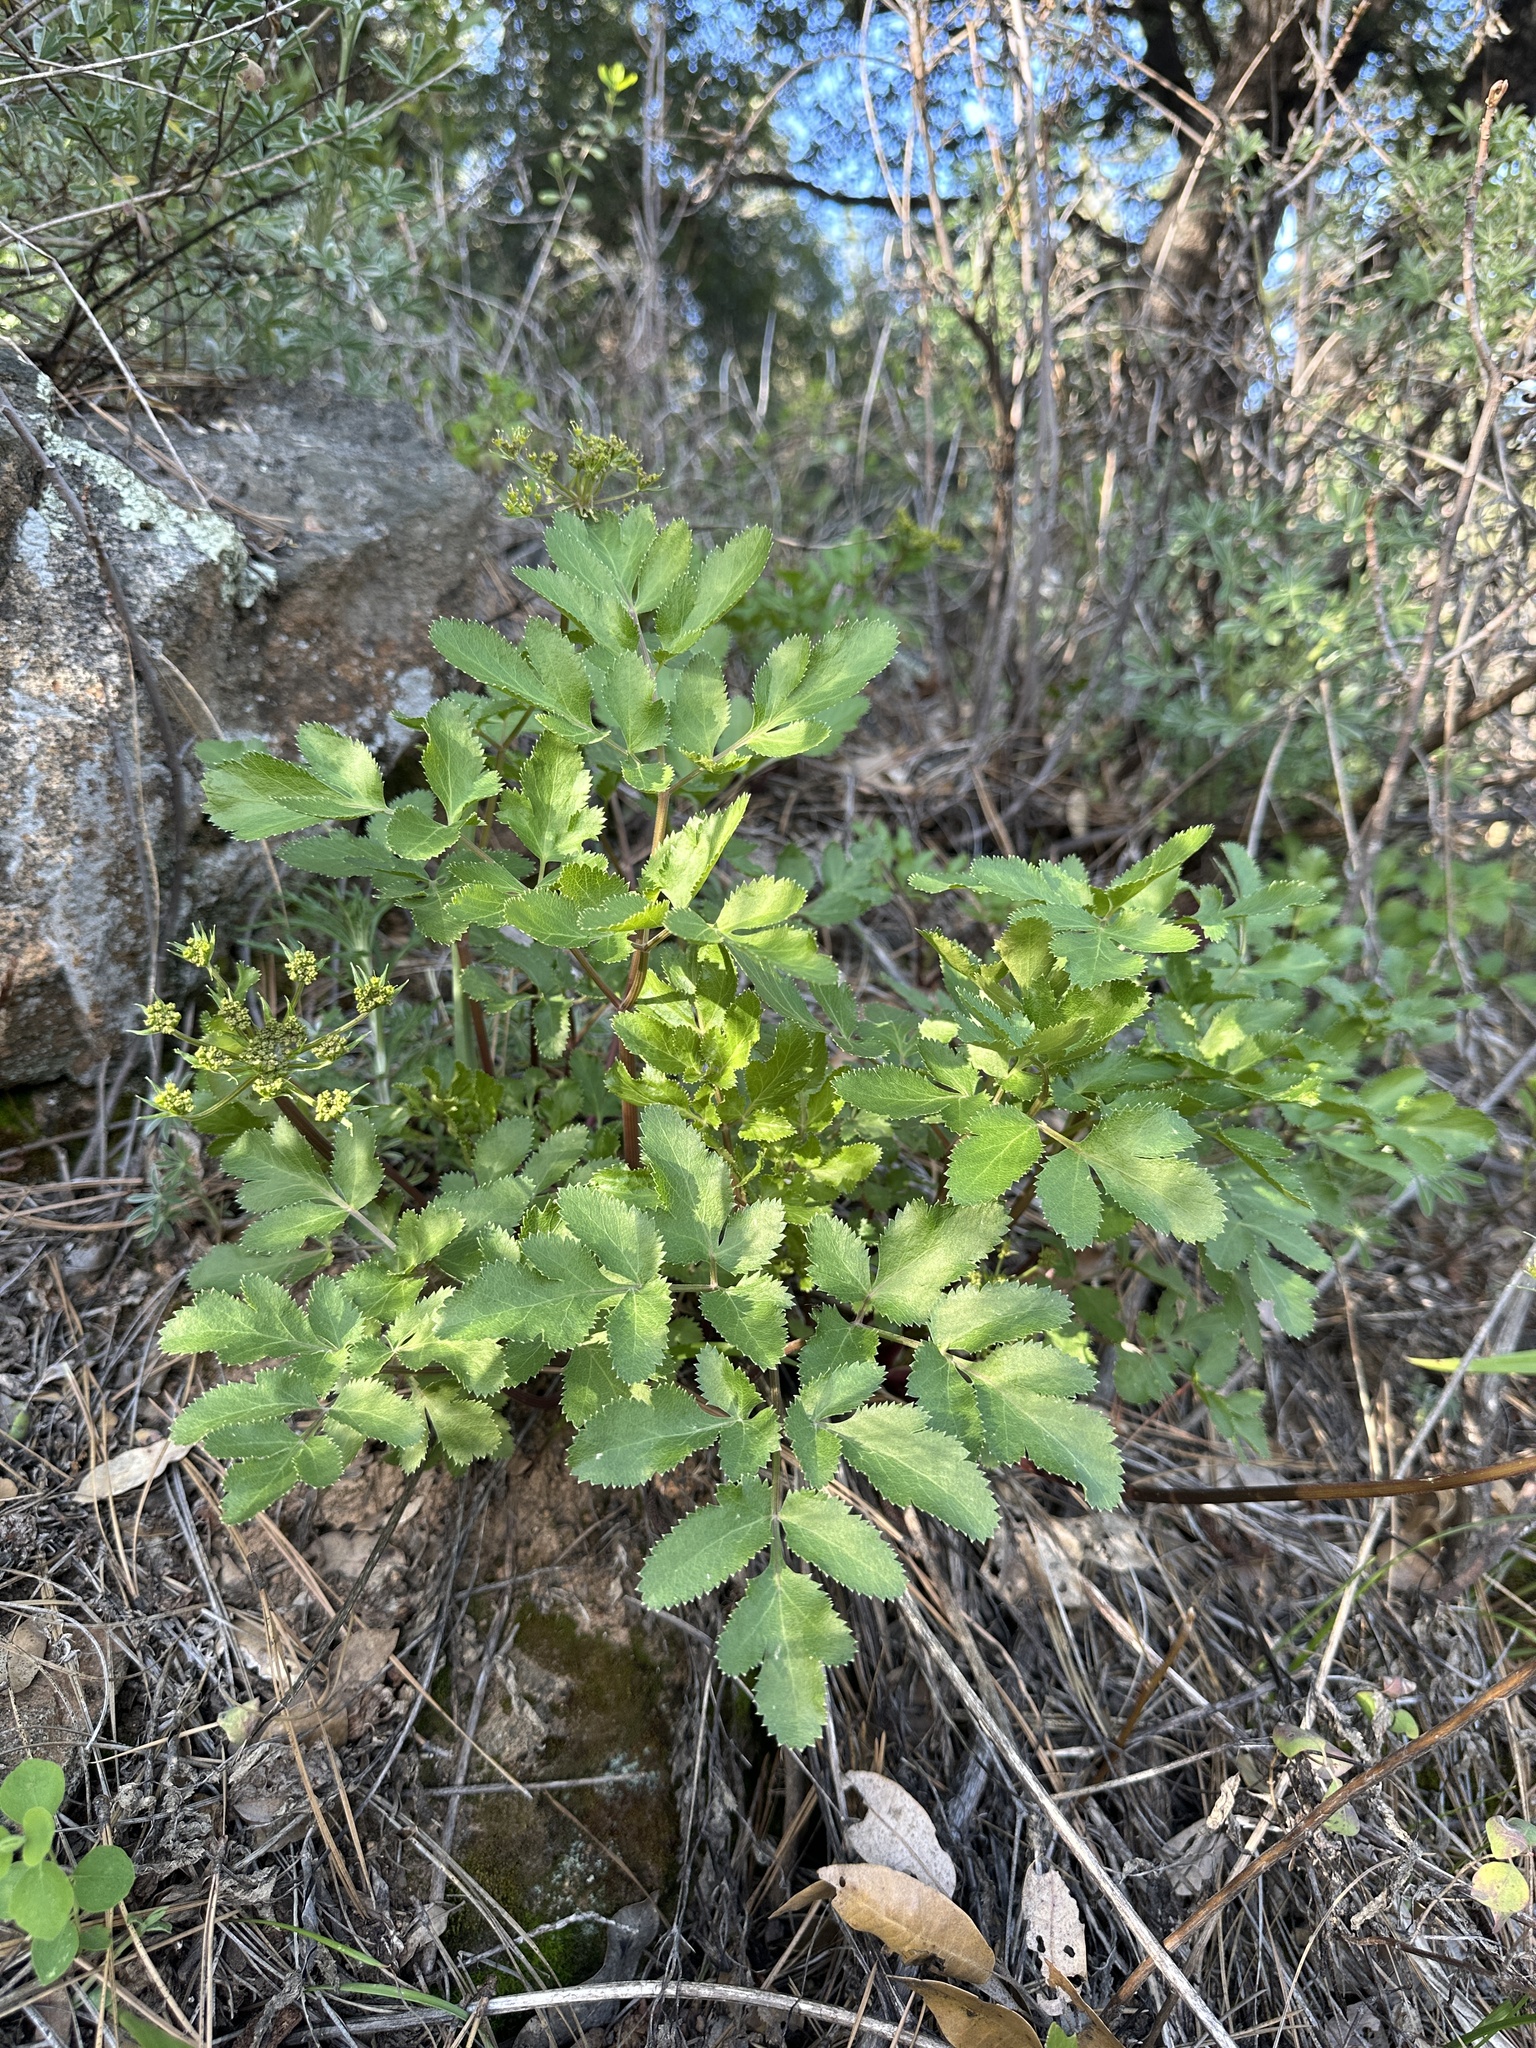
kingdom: Plantae
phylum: Tracheophyta
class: Magnoliopsida
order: Apiales
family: Apiaceae
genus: Tauschia
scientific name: Tauschia hartwegii
